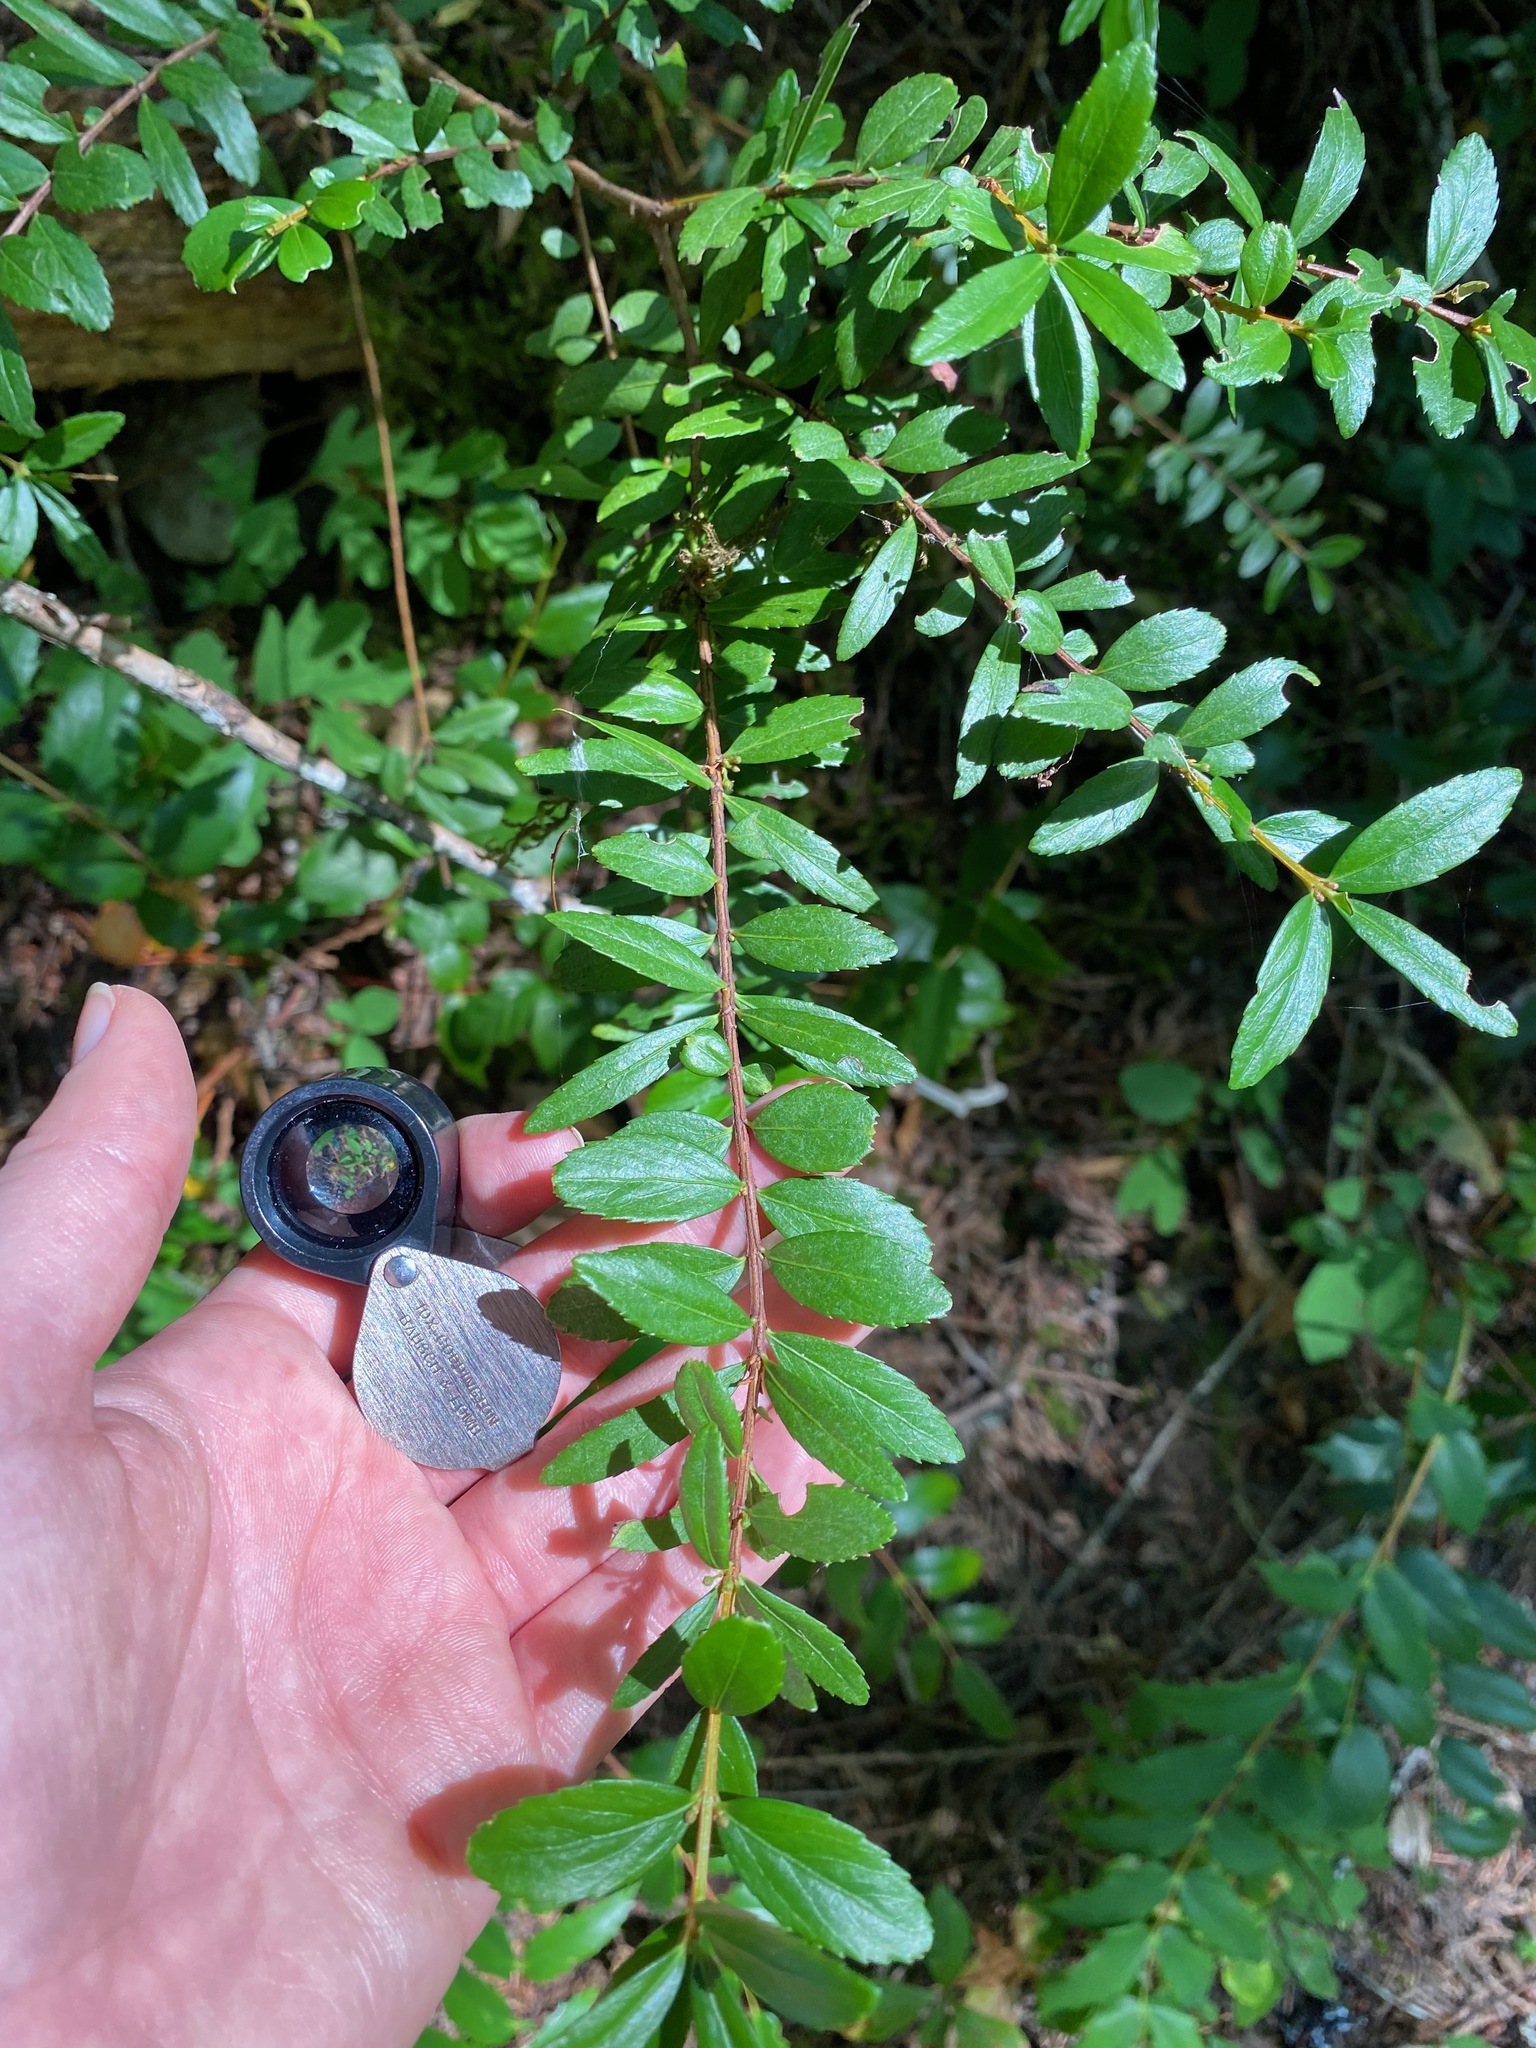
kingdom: Plantae
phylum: Tracheophyta
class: Magnoliopsida
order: Celastrales
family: Celastraceae
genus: Paxistima
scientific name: Paxistima myrsinites
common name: Mountain-lover
